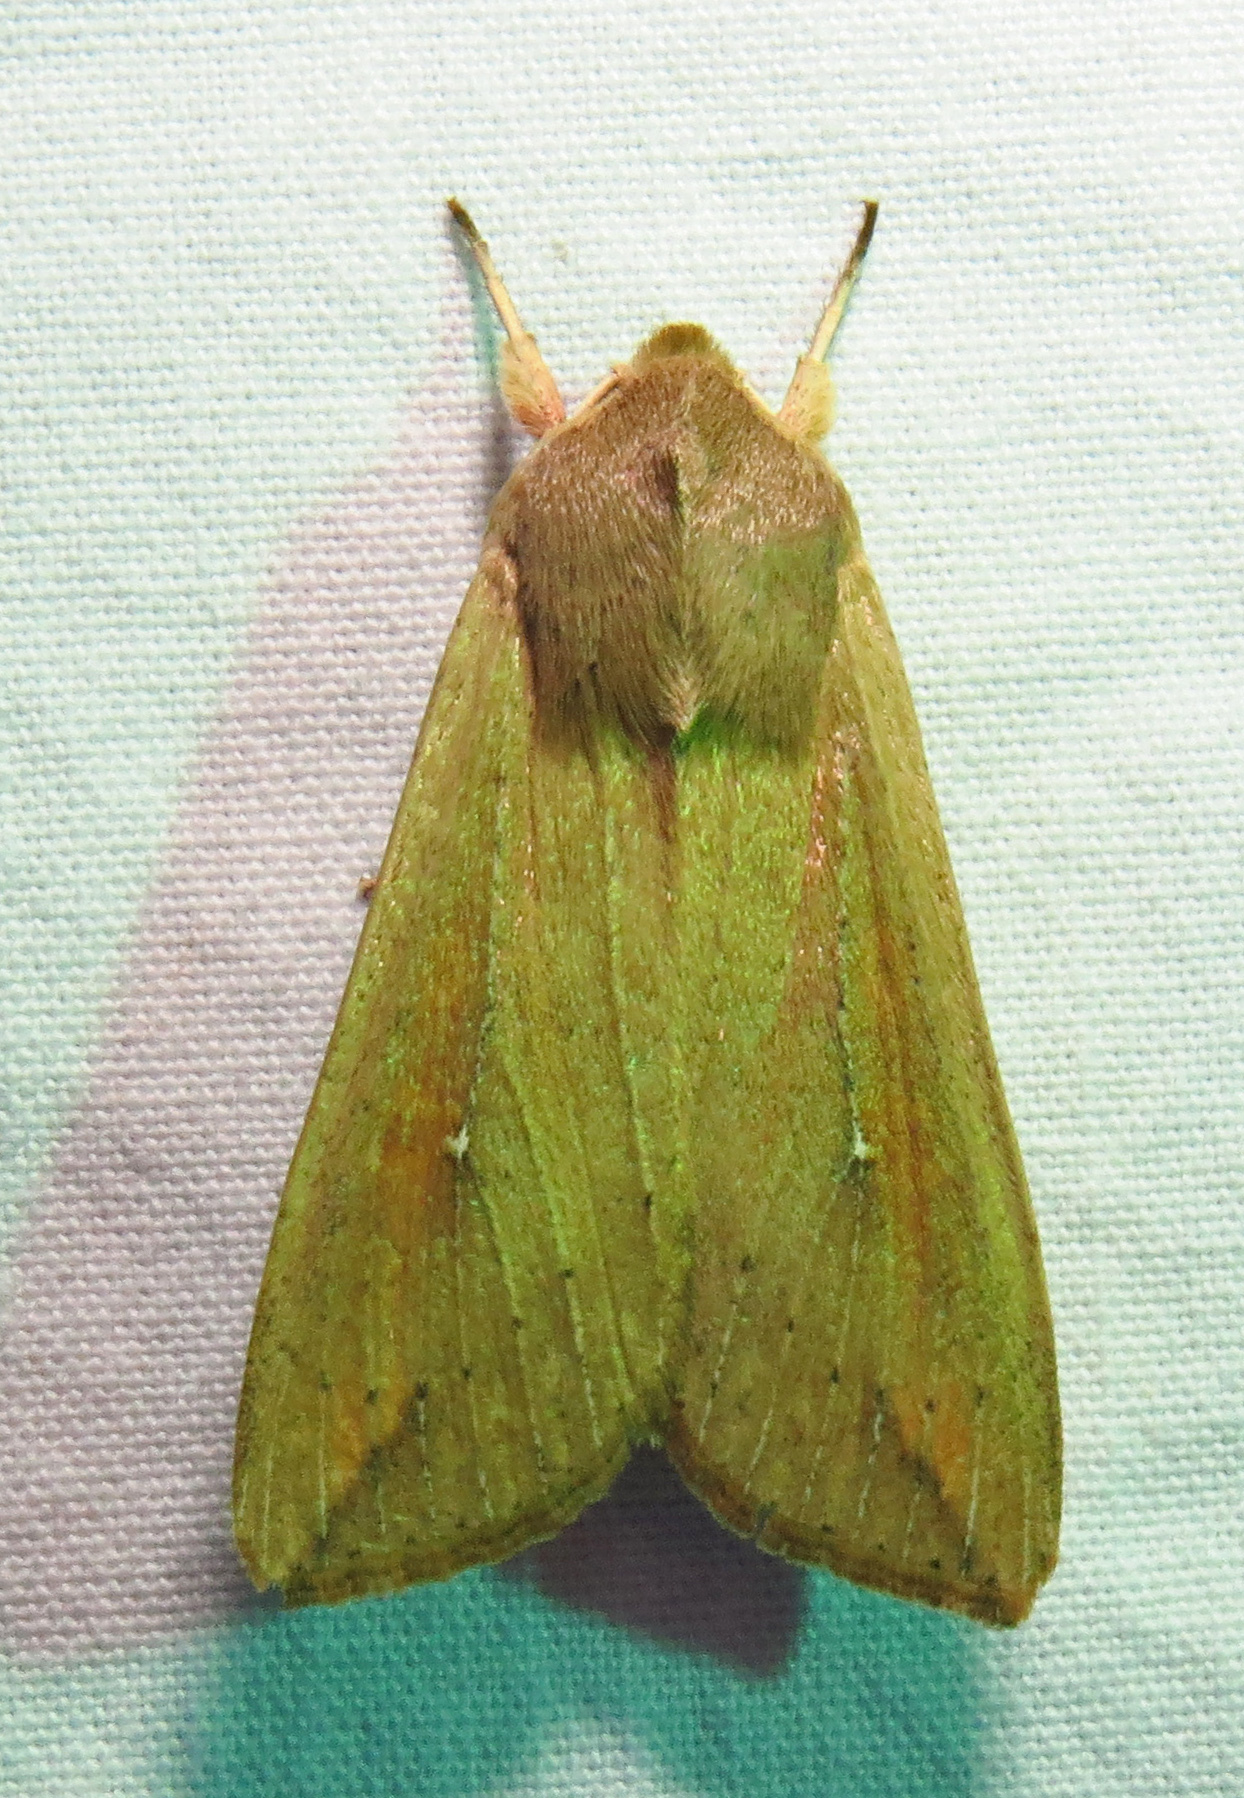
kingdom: Animalia
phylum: Arthropoda
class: Insecta
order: Lepidoptera
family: Noctuidae
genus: Mythimna
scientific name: Mythimna unipuncta
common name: White-speck
